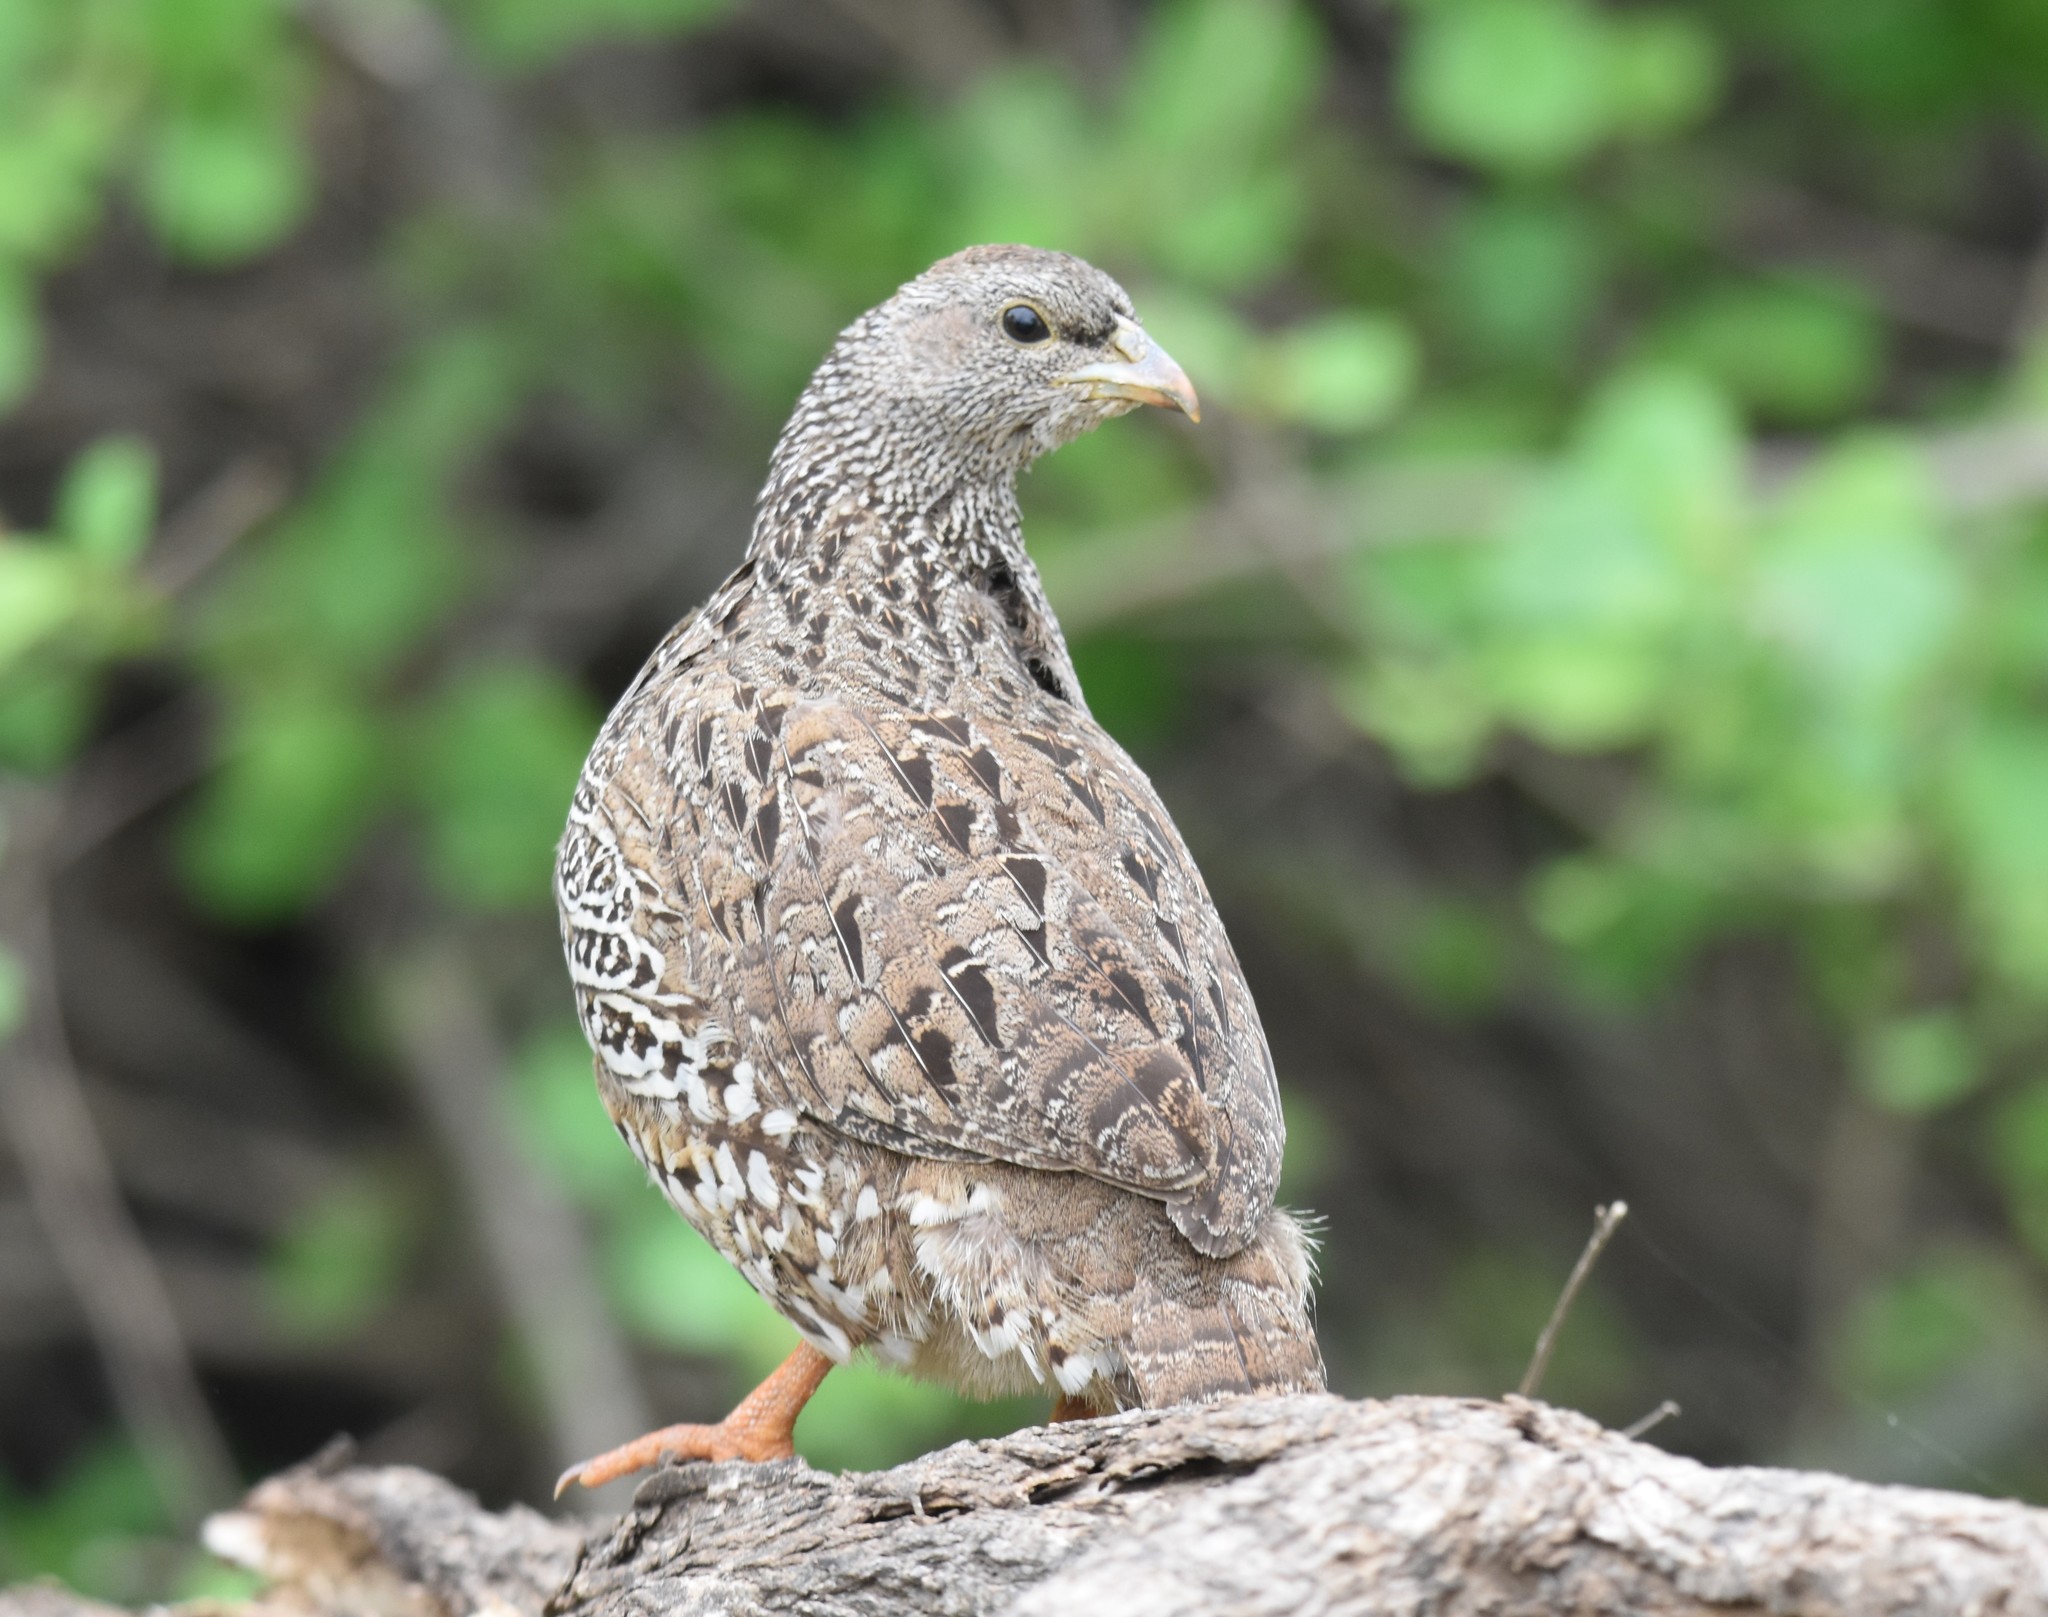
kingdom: Animalia
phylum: Chordata
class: Aves
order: Galliformes
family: Phasianidae
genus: Pternistis
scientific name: Pternistis natalensis
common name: Natal spurfowl
